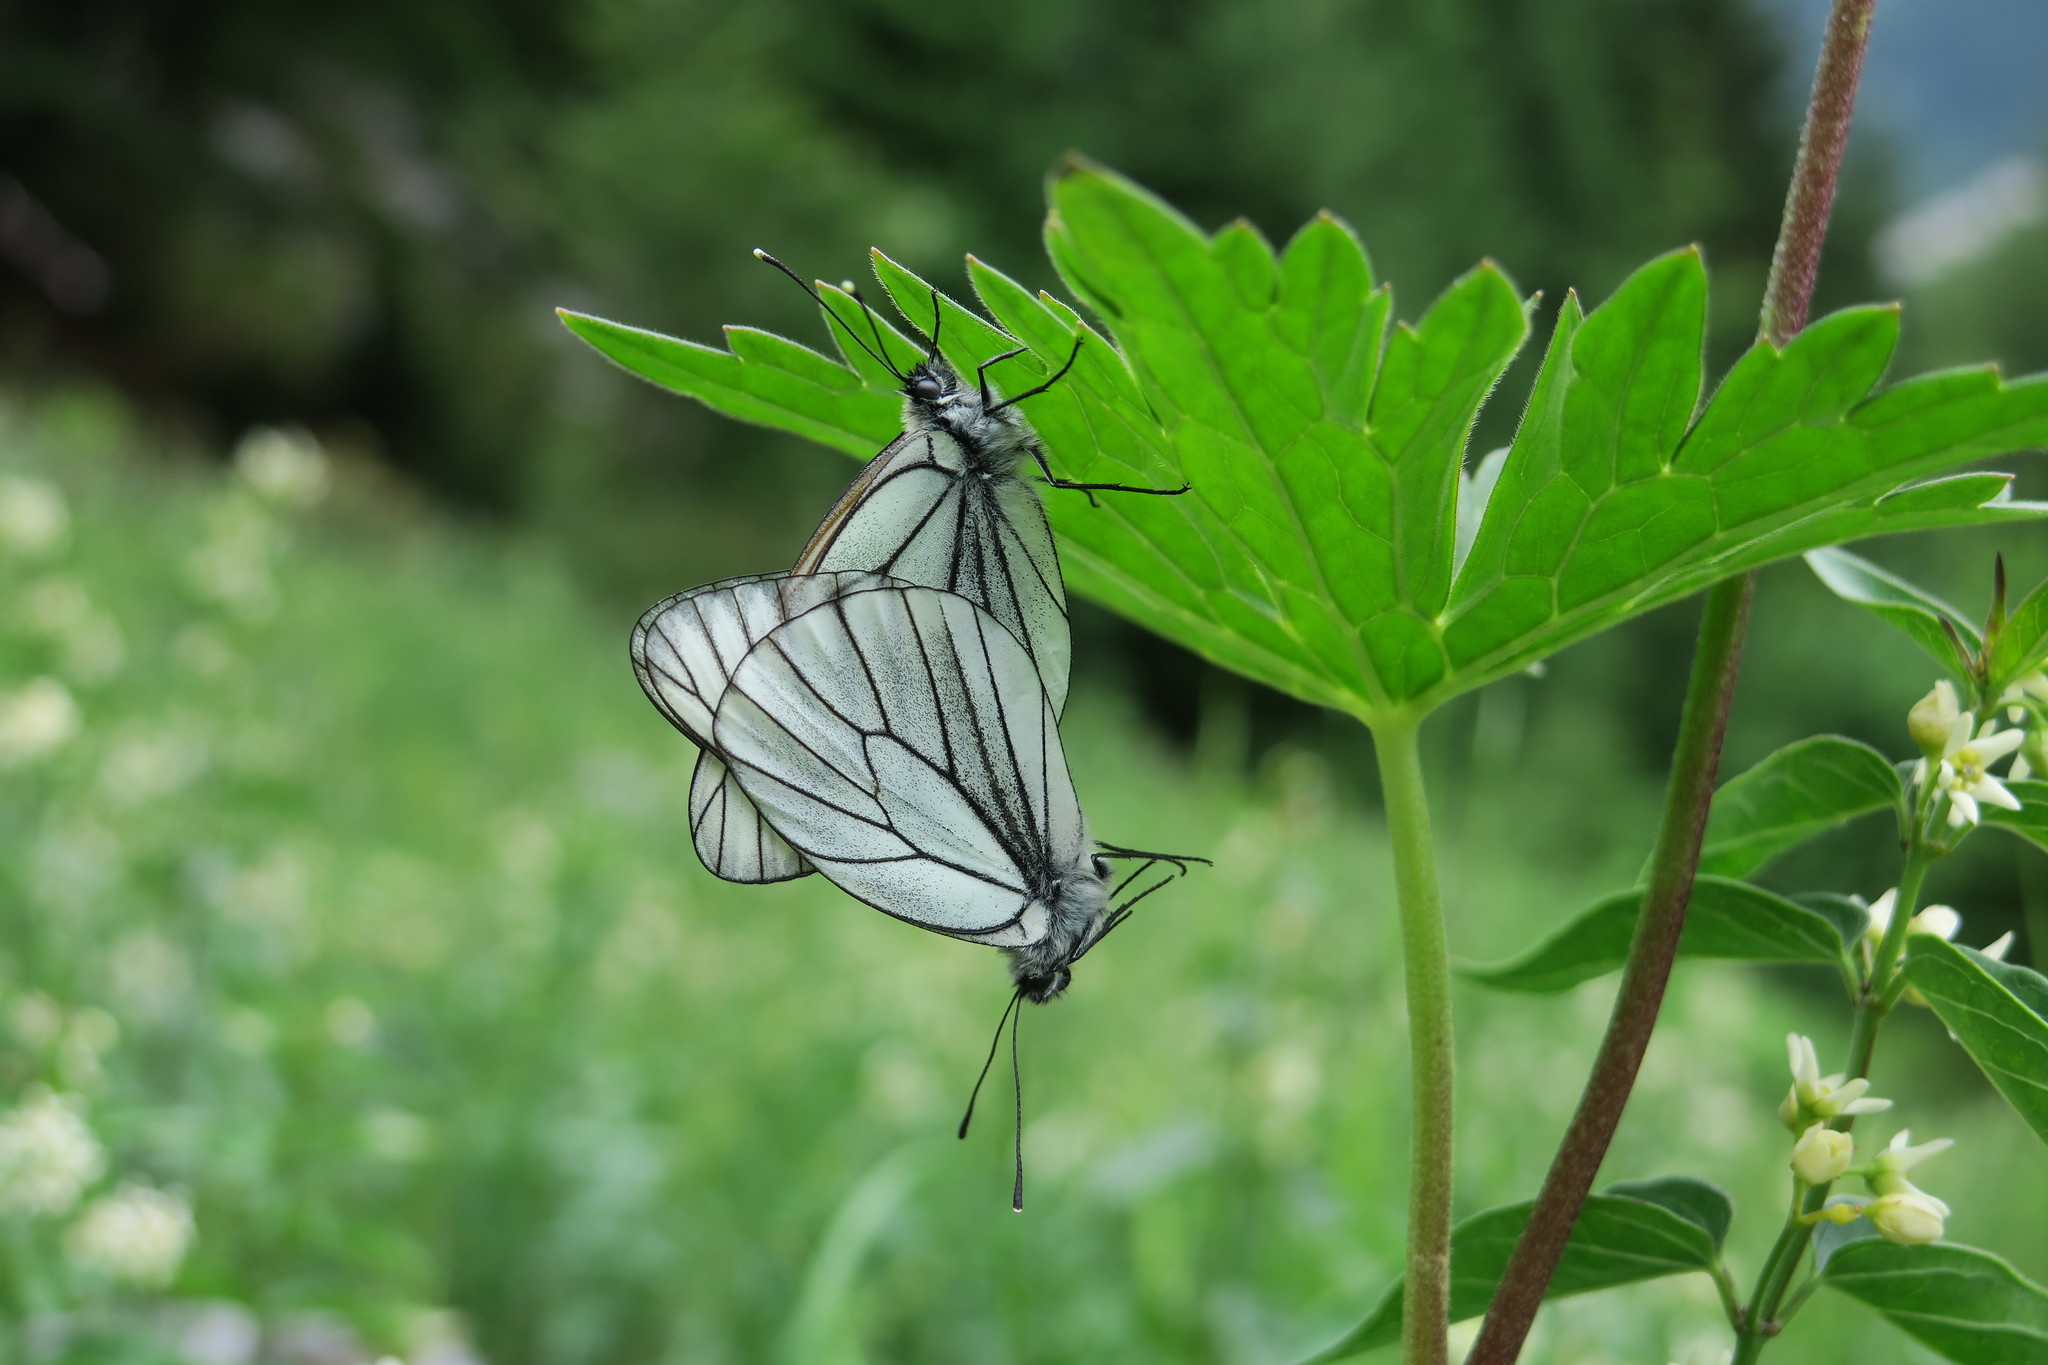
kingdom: Animalia
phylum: Arthropoda
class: Insecta
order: Lepidoptera
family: Pieridae
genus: Aporia
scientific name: Aporia crataegi
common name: Black-veined white
